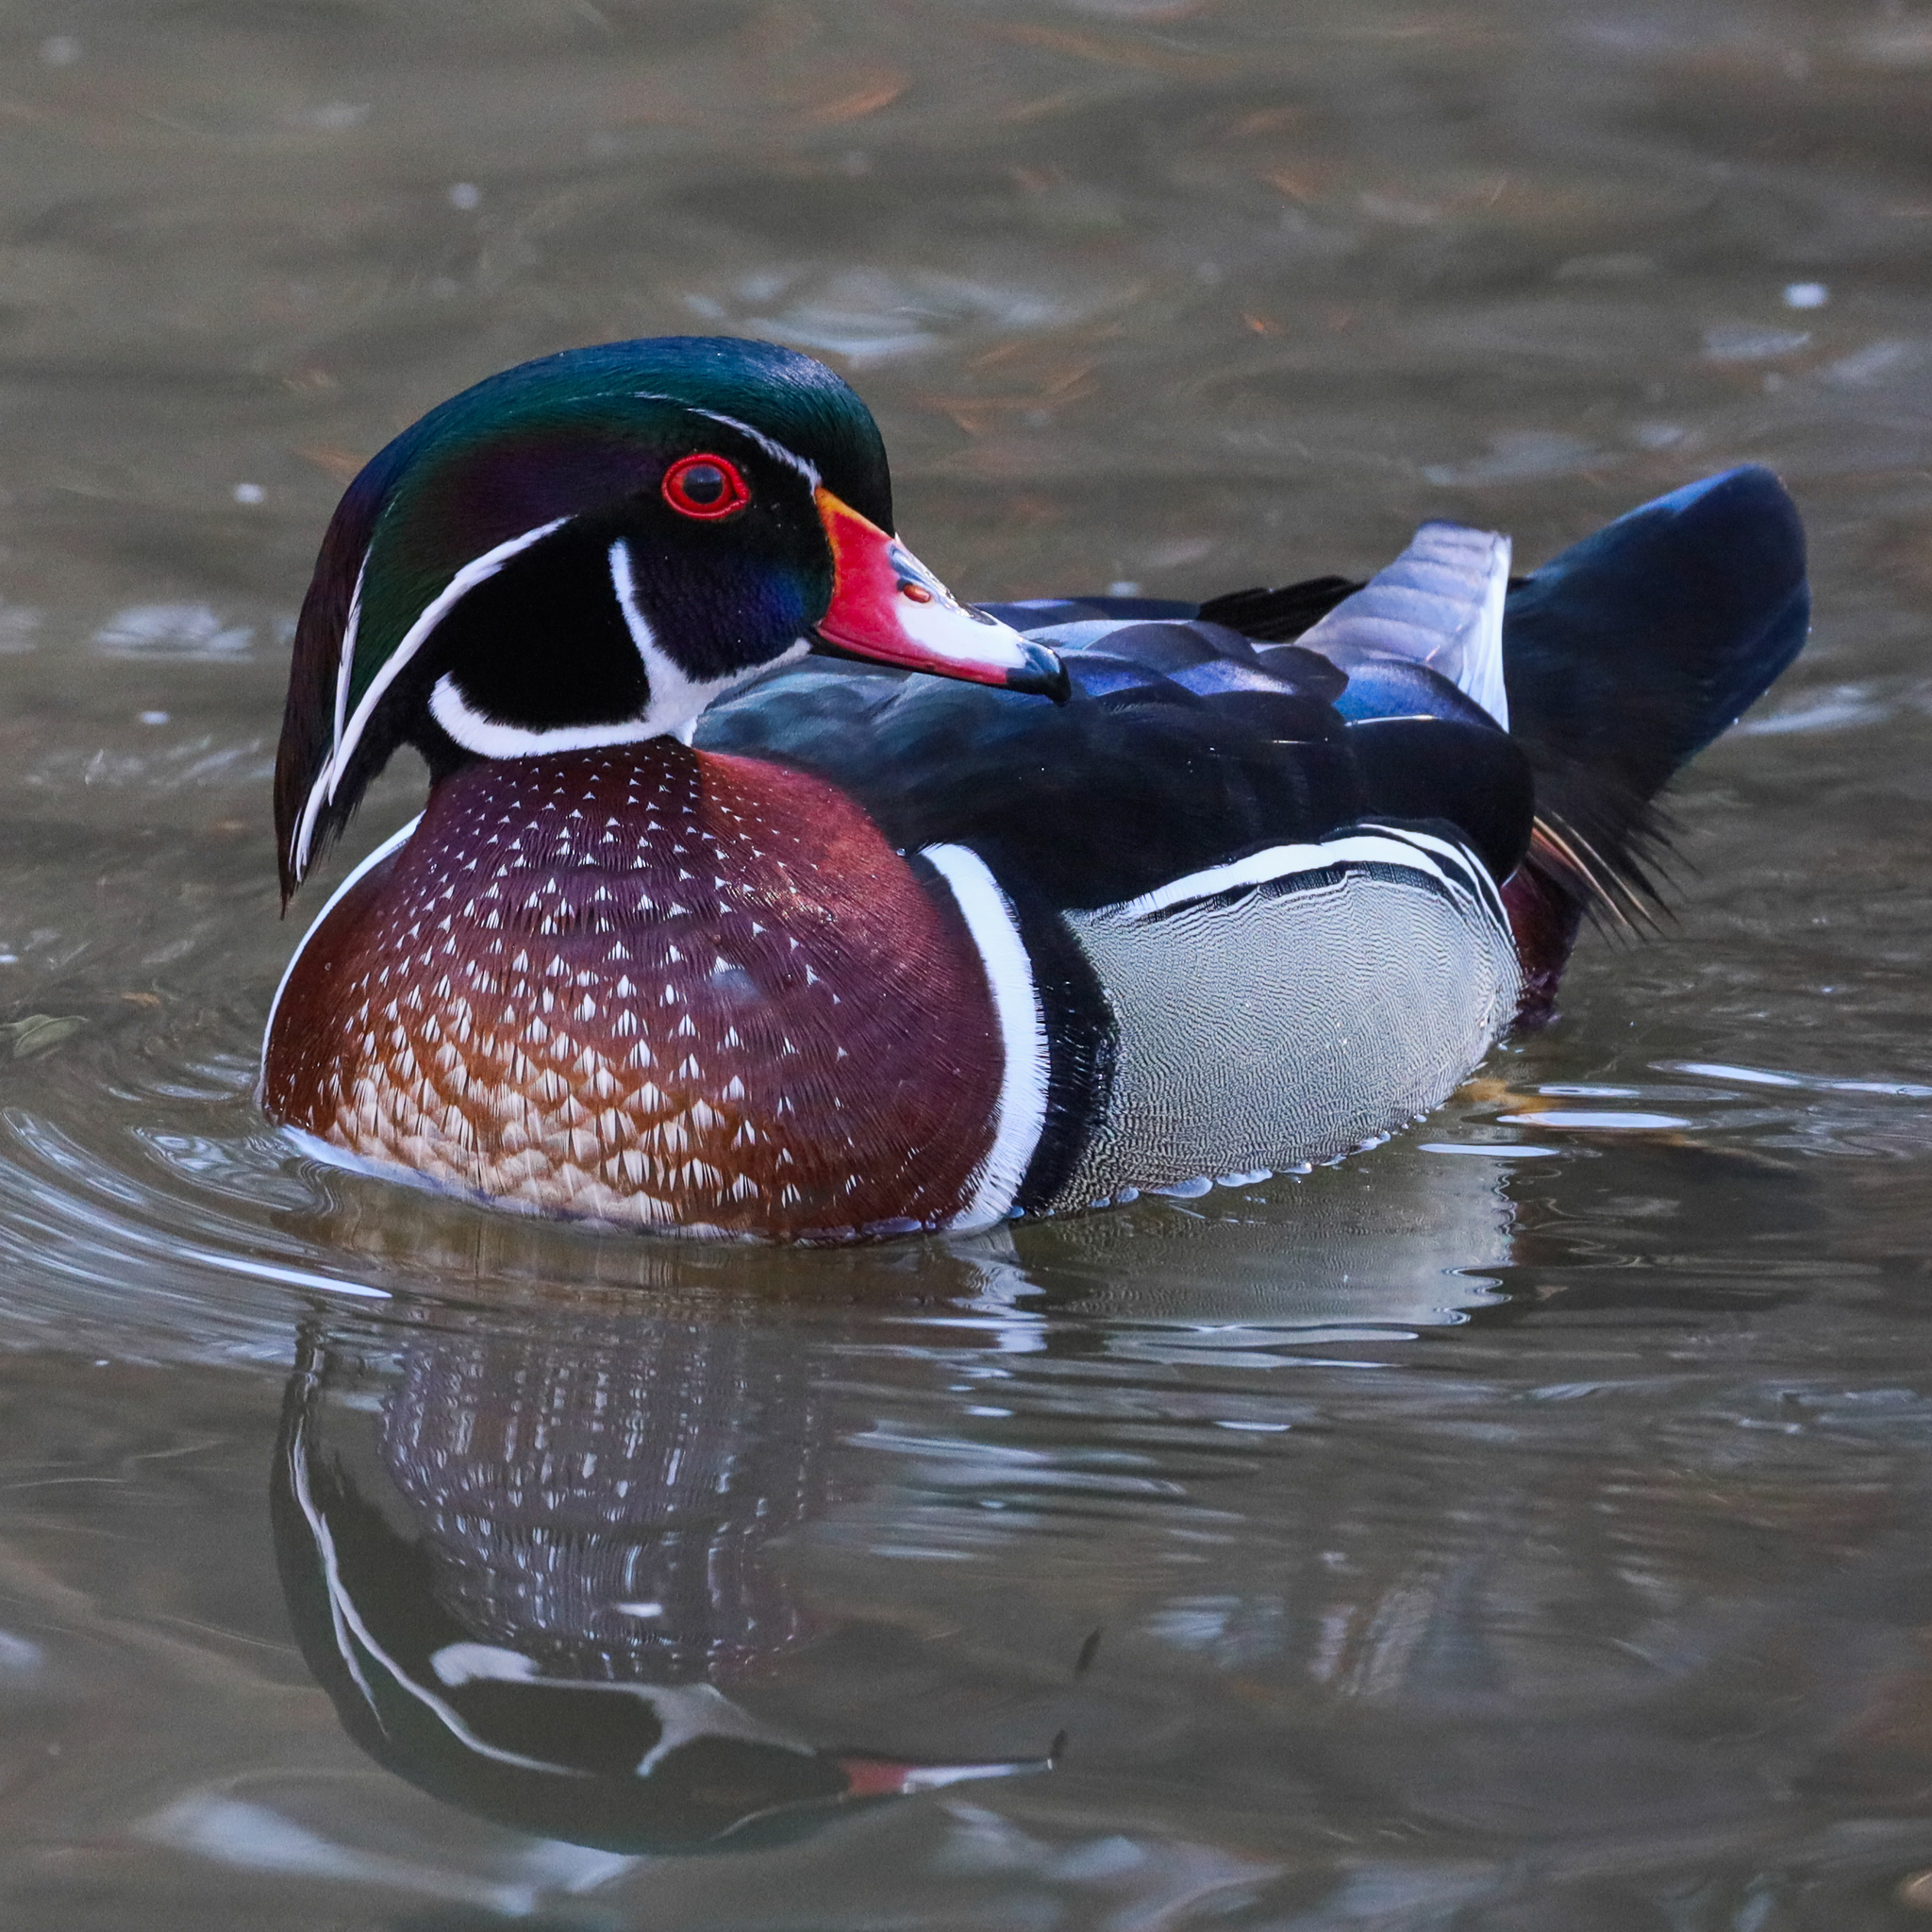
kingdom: Animalia
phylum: Chordata
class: Aves
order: Anseriformes
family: Anatidae
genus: Aix
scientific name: Aix sponsa
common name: Wood duck
